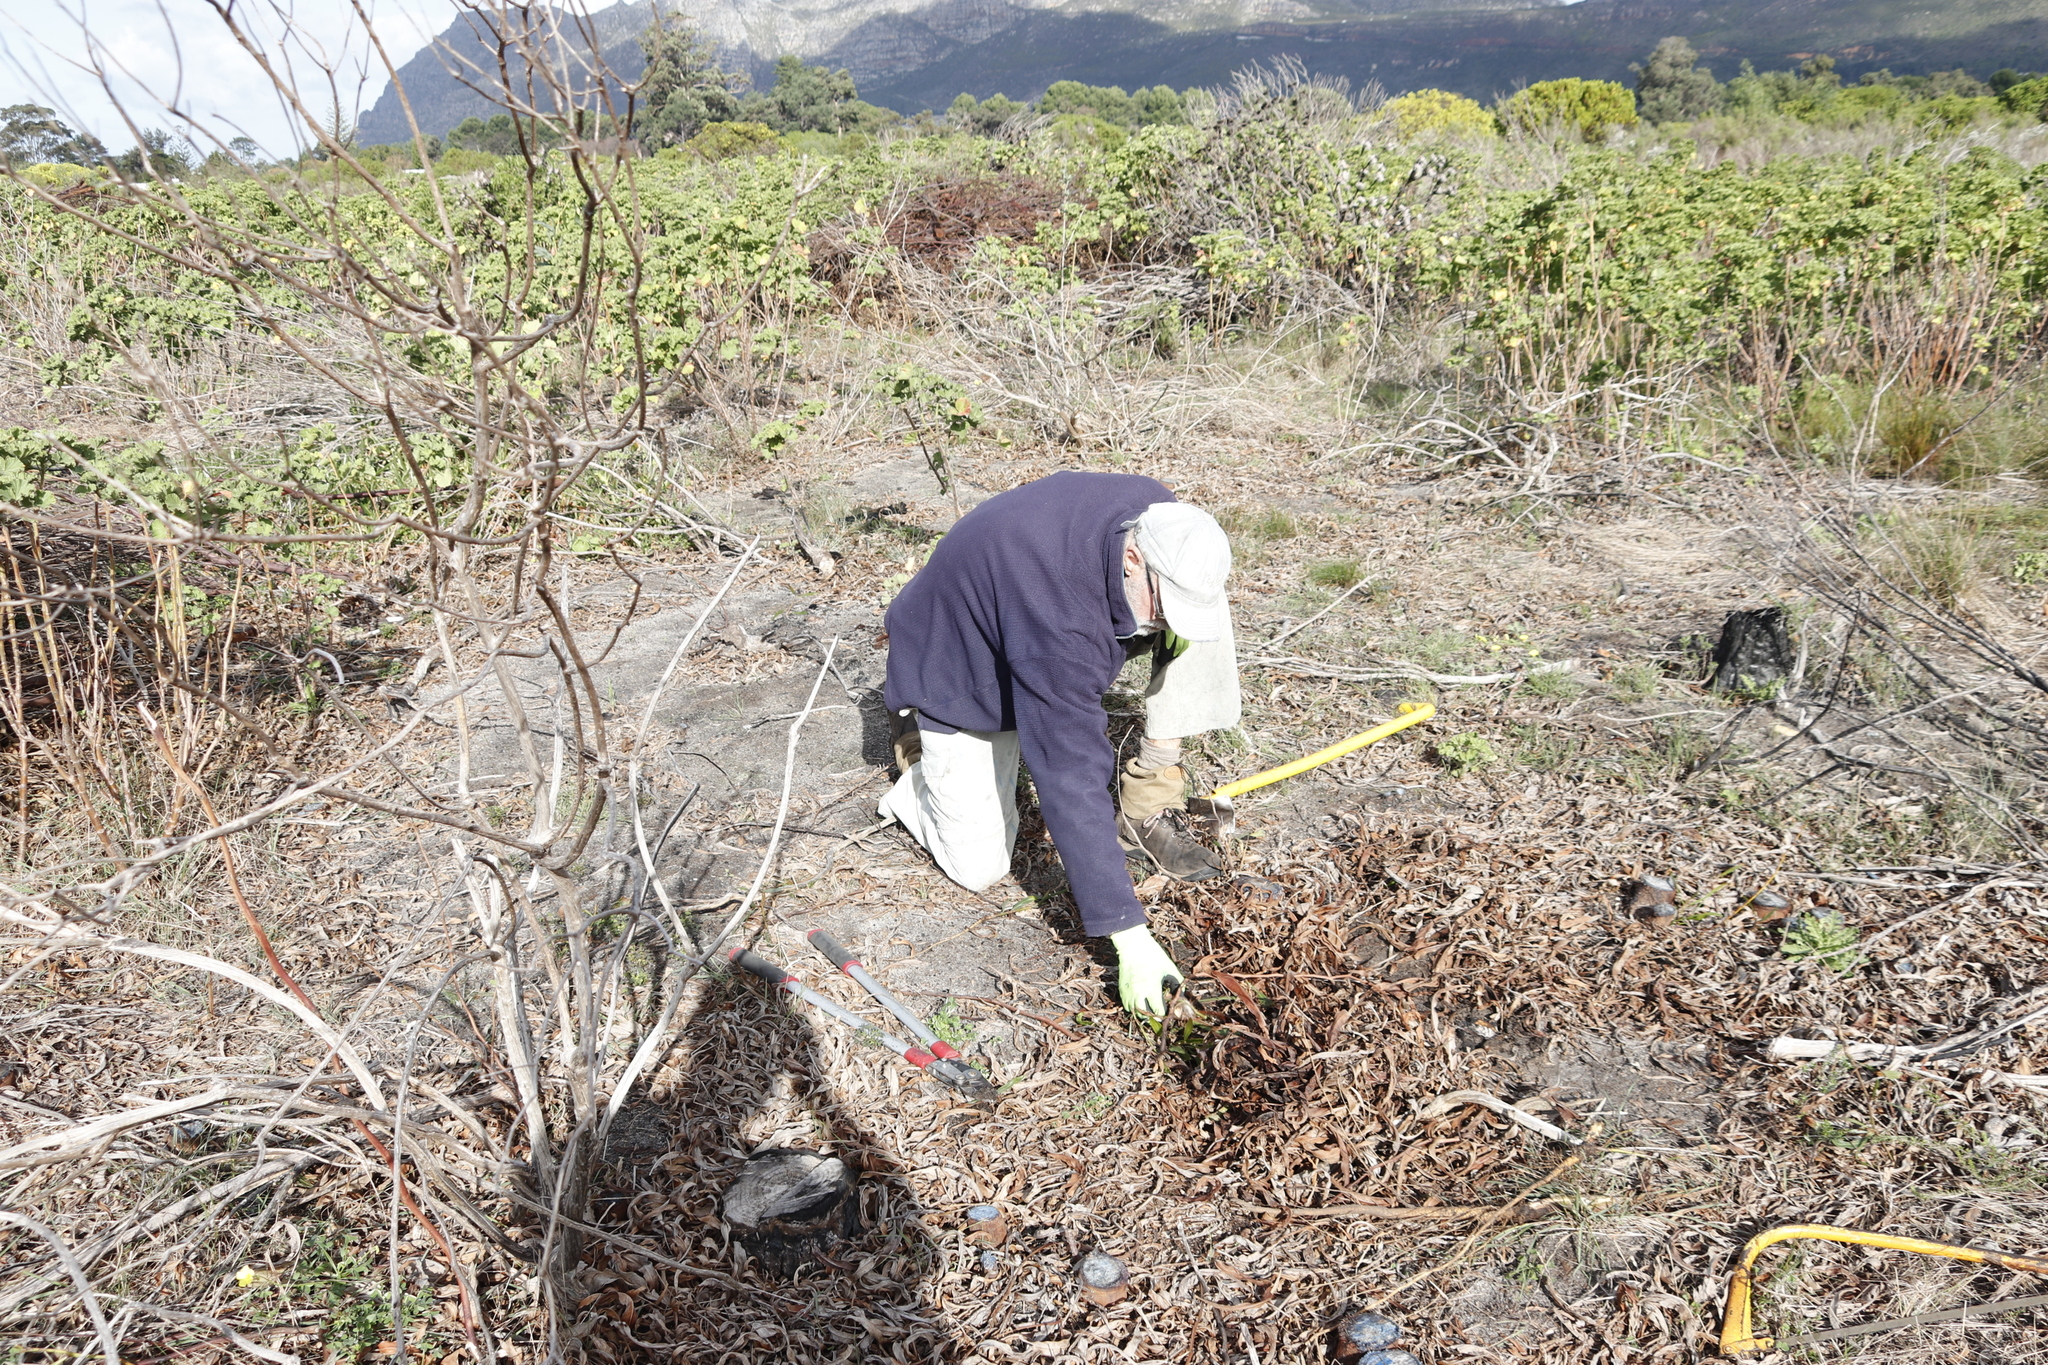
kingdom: Plantae
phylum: Tracheophyta
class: Magnoliopsida
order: Fabales
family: Fabaceae
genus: Acacia
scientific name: Acacia saligna
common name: Orange wattle
